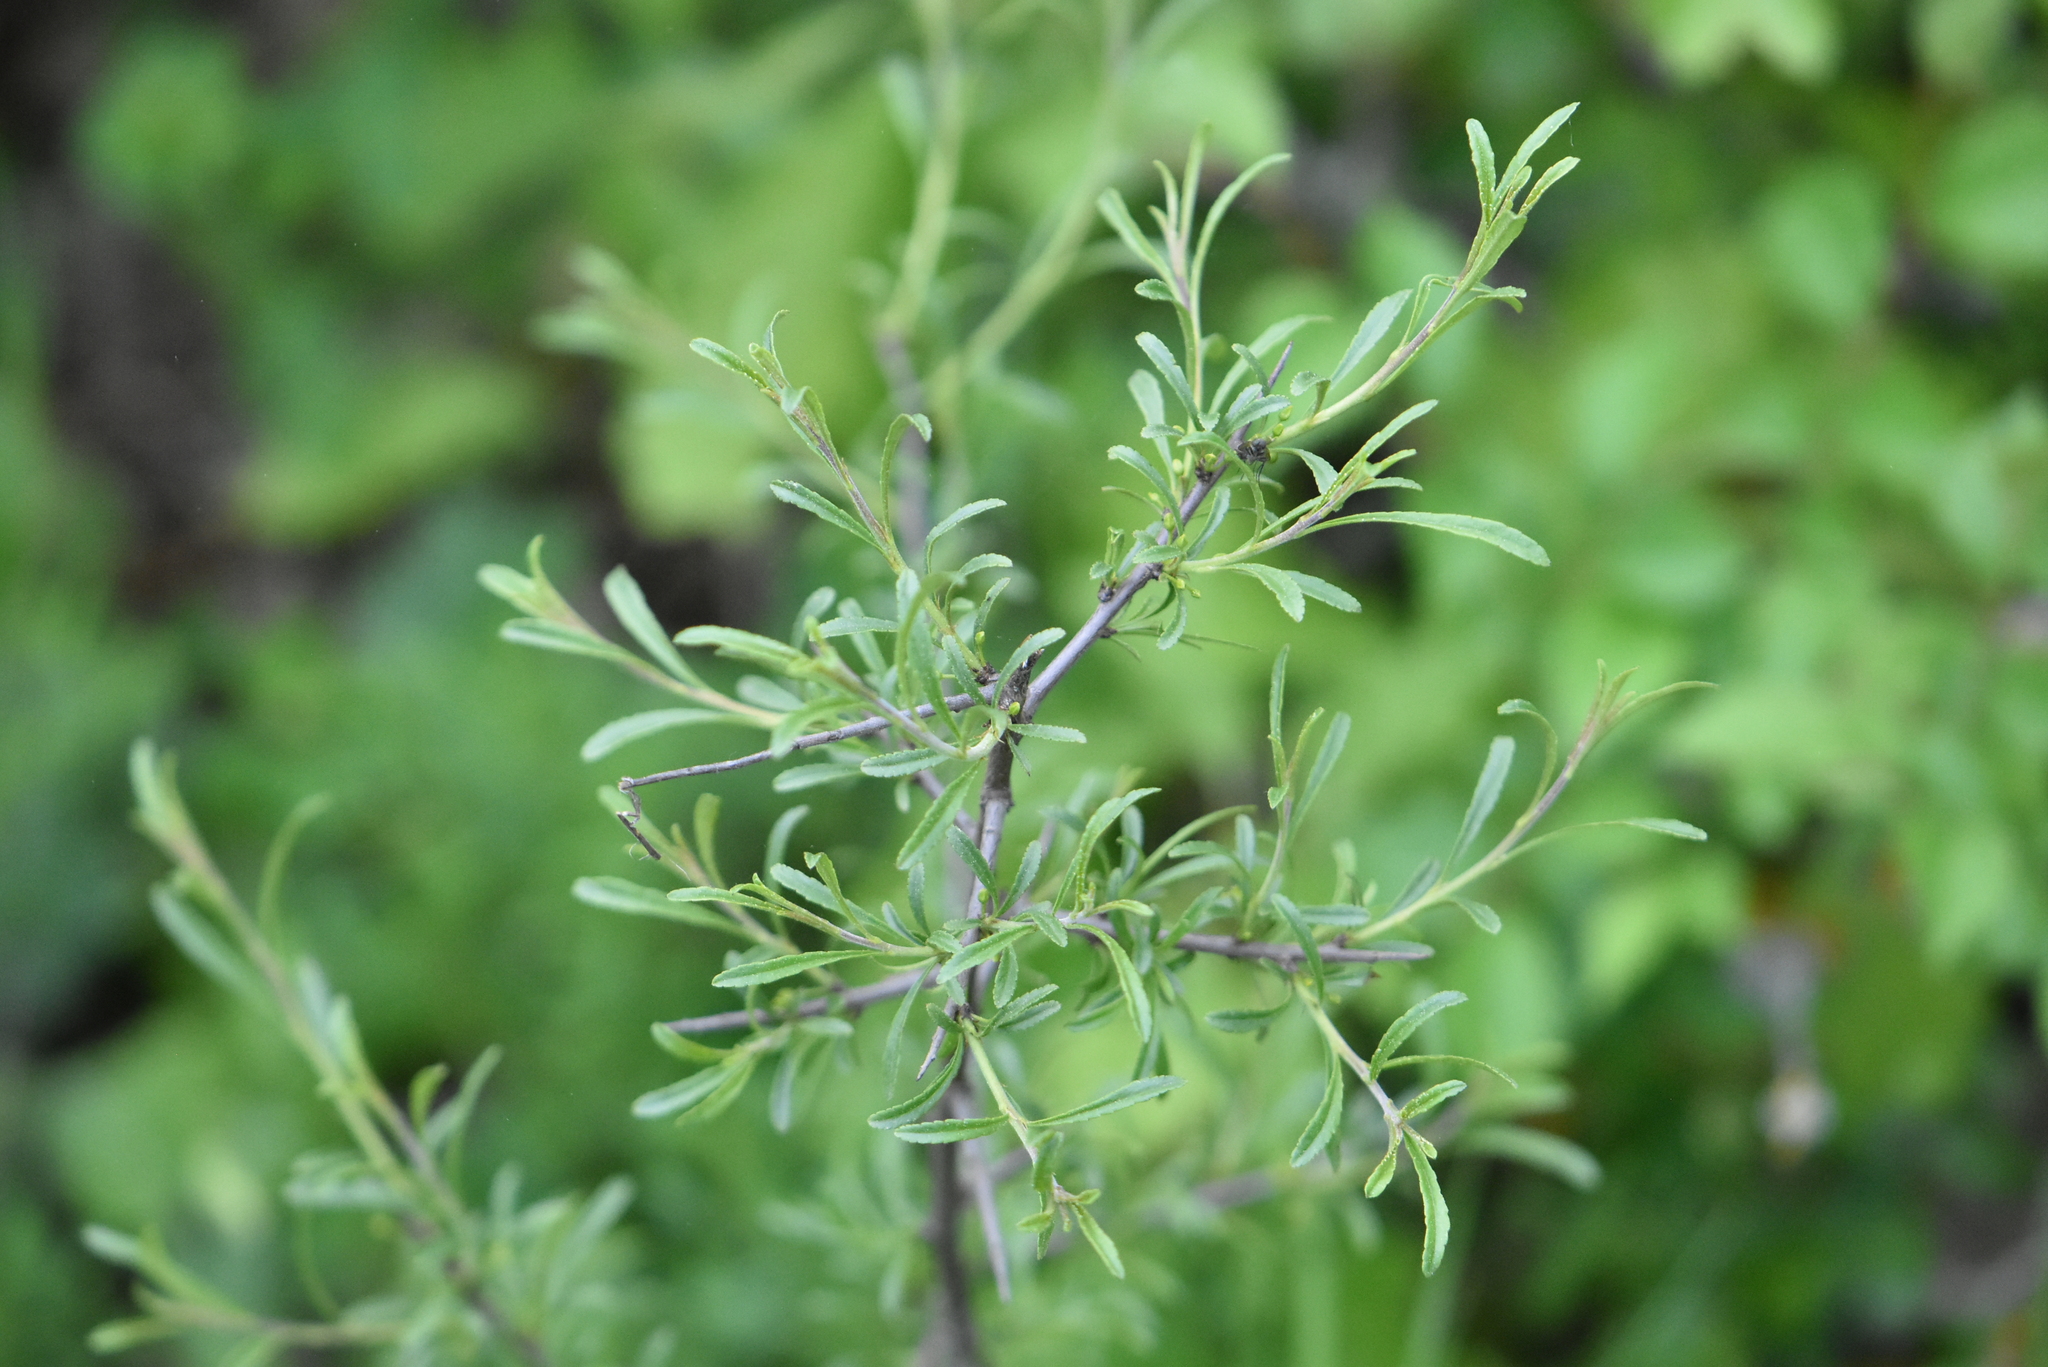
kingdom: Plantae
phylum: Tracheophyta
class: Magnoliopsida
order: Rosales
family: Rhamnaceae
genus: Rhamnus
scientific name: Rhamnus erythroxyloides
